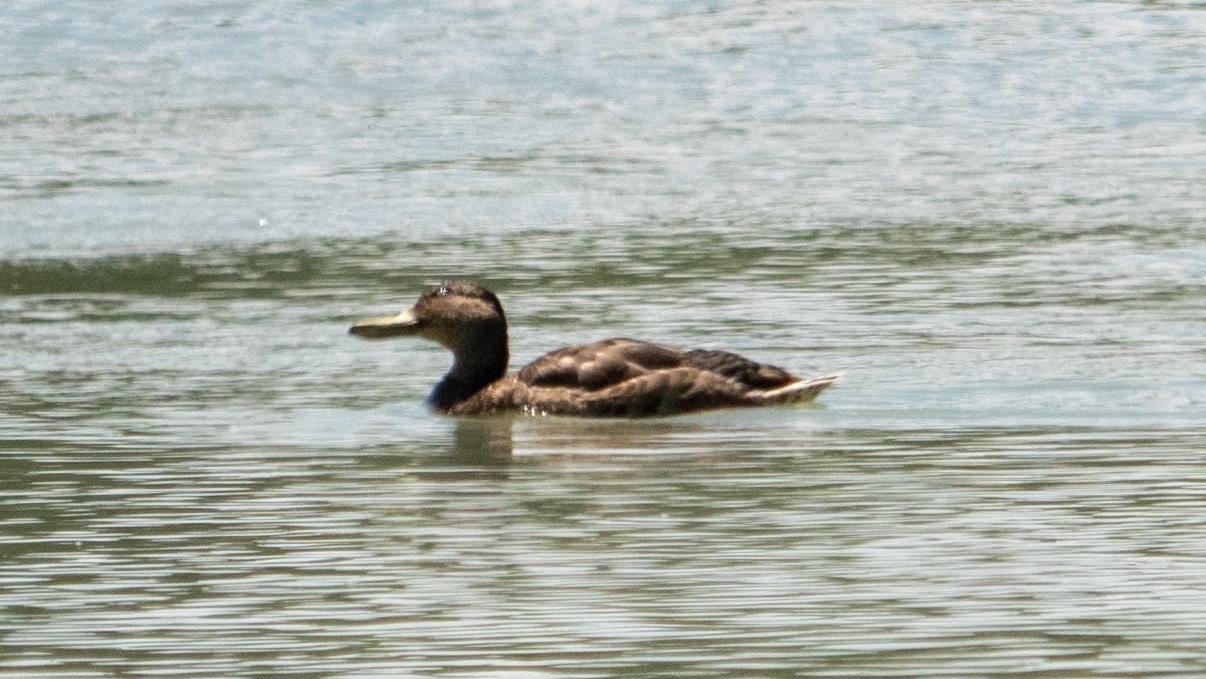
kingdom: Animalia
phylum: Chordata
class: Aves
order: Anseriformes
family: Anatidae
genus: Anas
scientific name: Anas platyrhynchos
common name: Mallard
